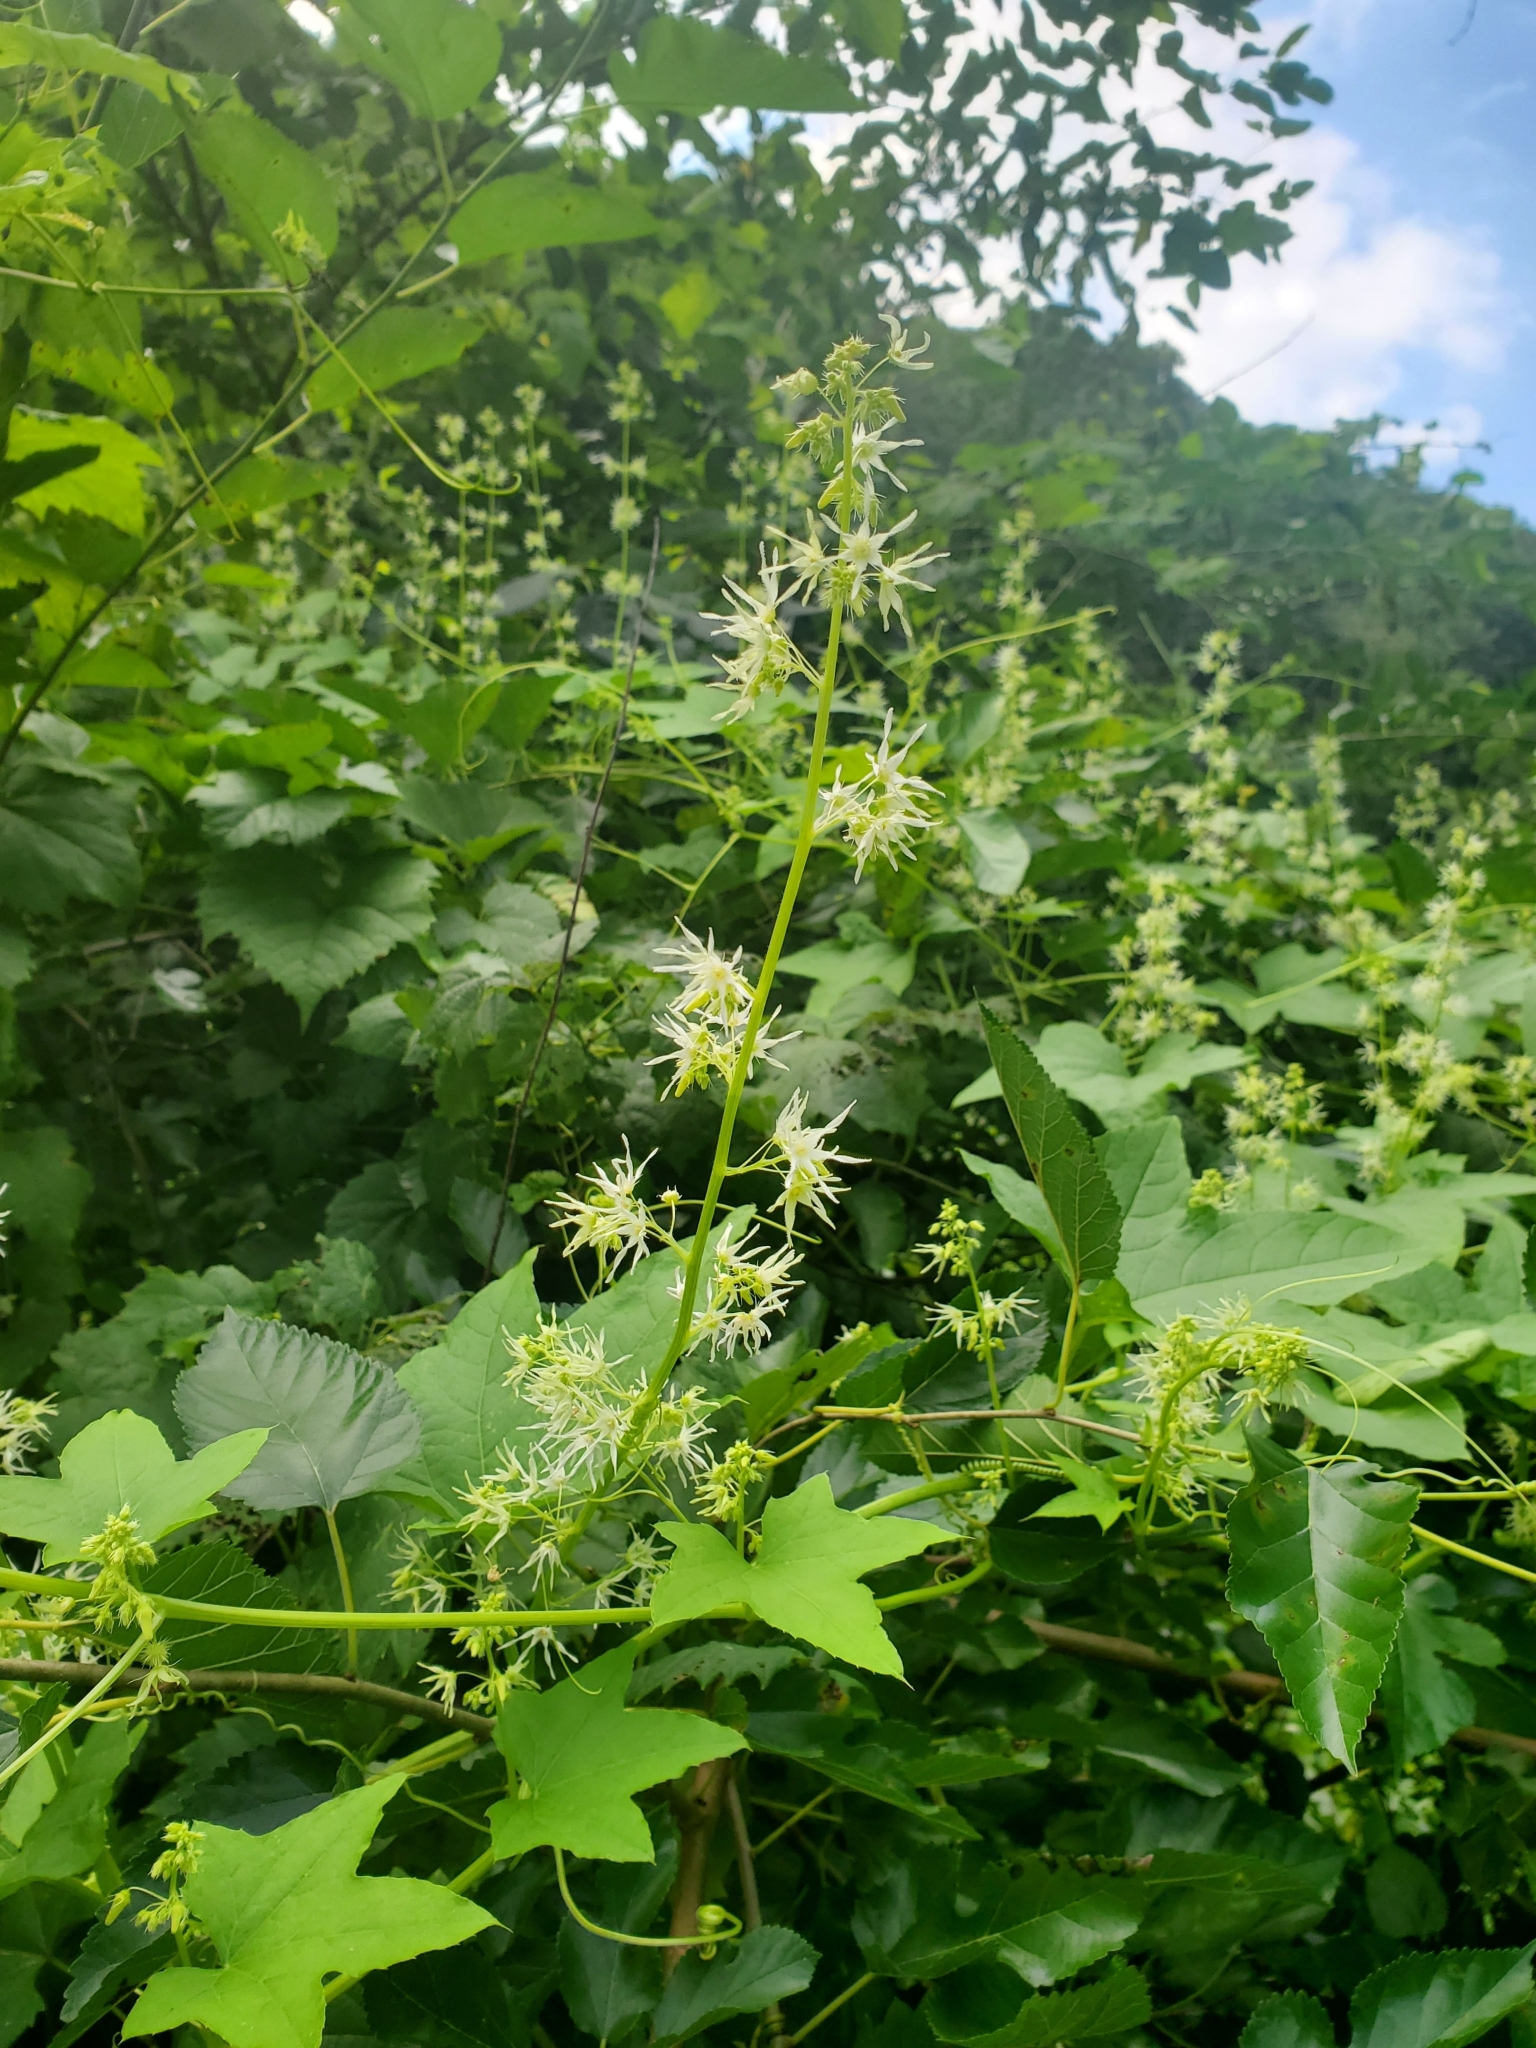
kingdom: Plantae
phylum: Tracheophyta
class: Magnoliopsida
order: Cucurbitales
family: Cucurbitaceae
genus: Echinocystis
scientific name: Echinocystis lobata
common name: Wild cucumber
